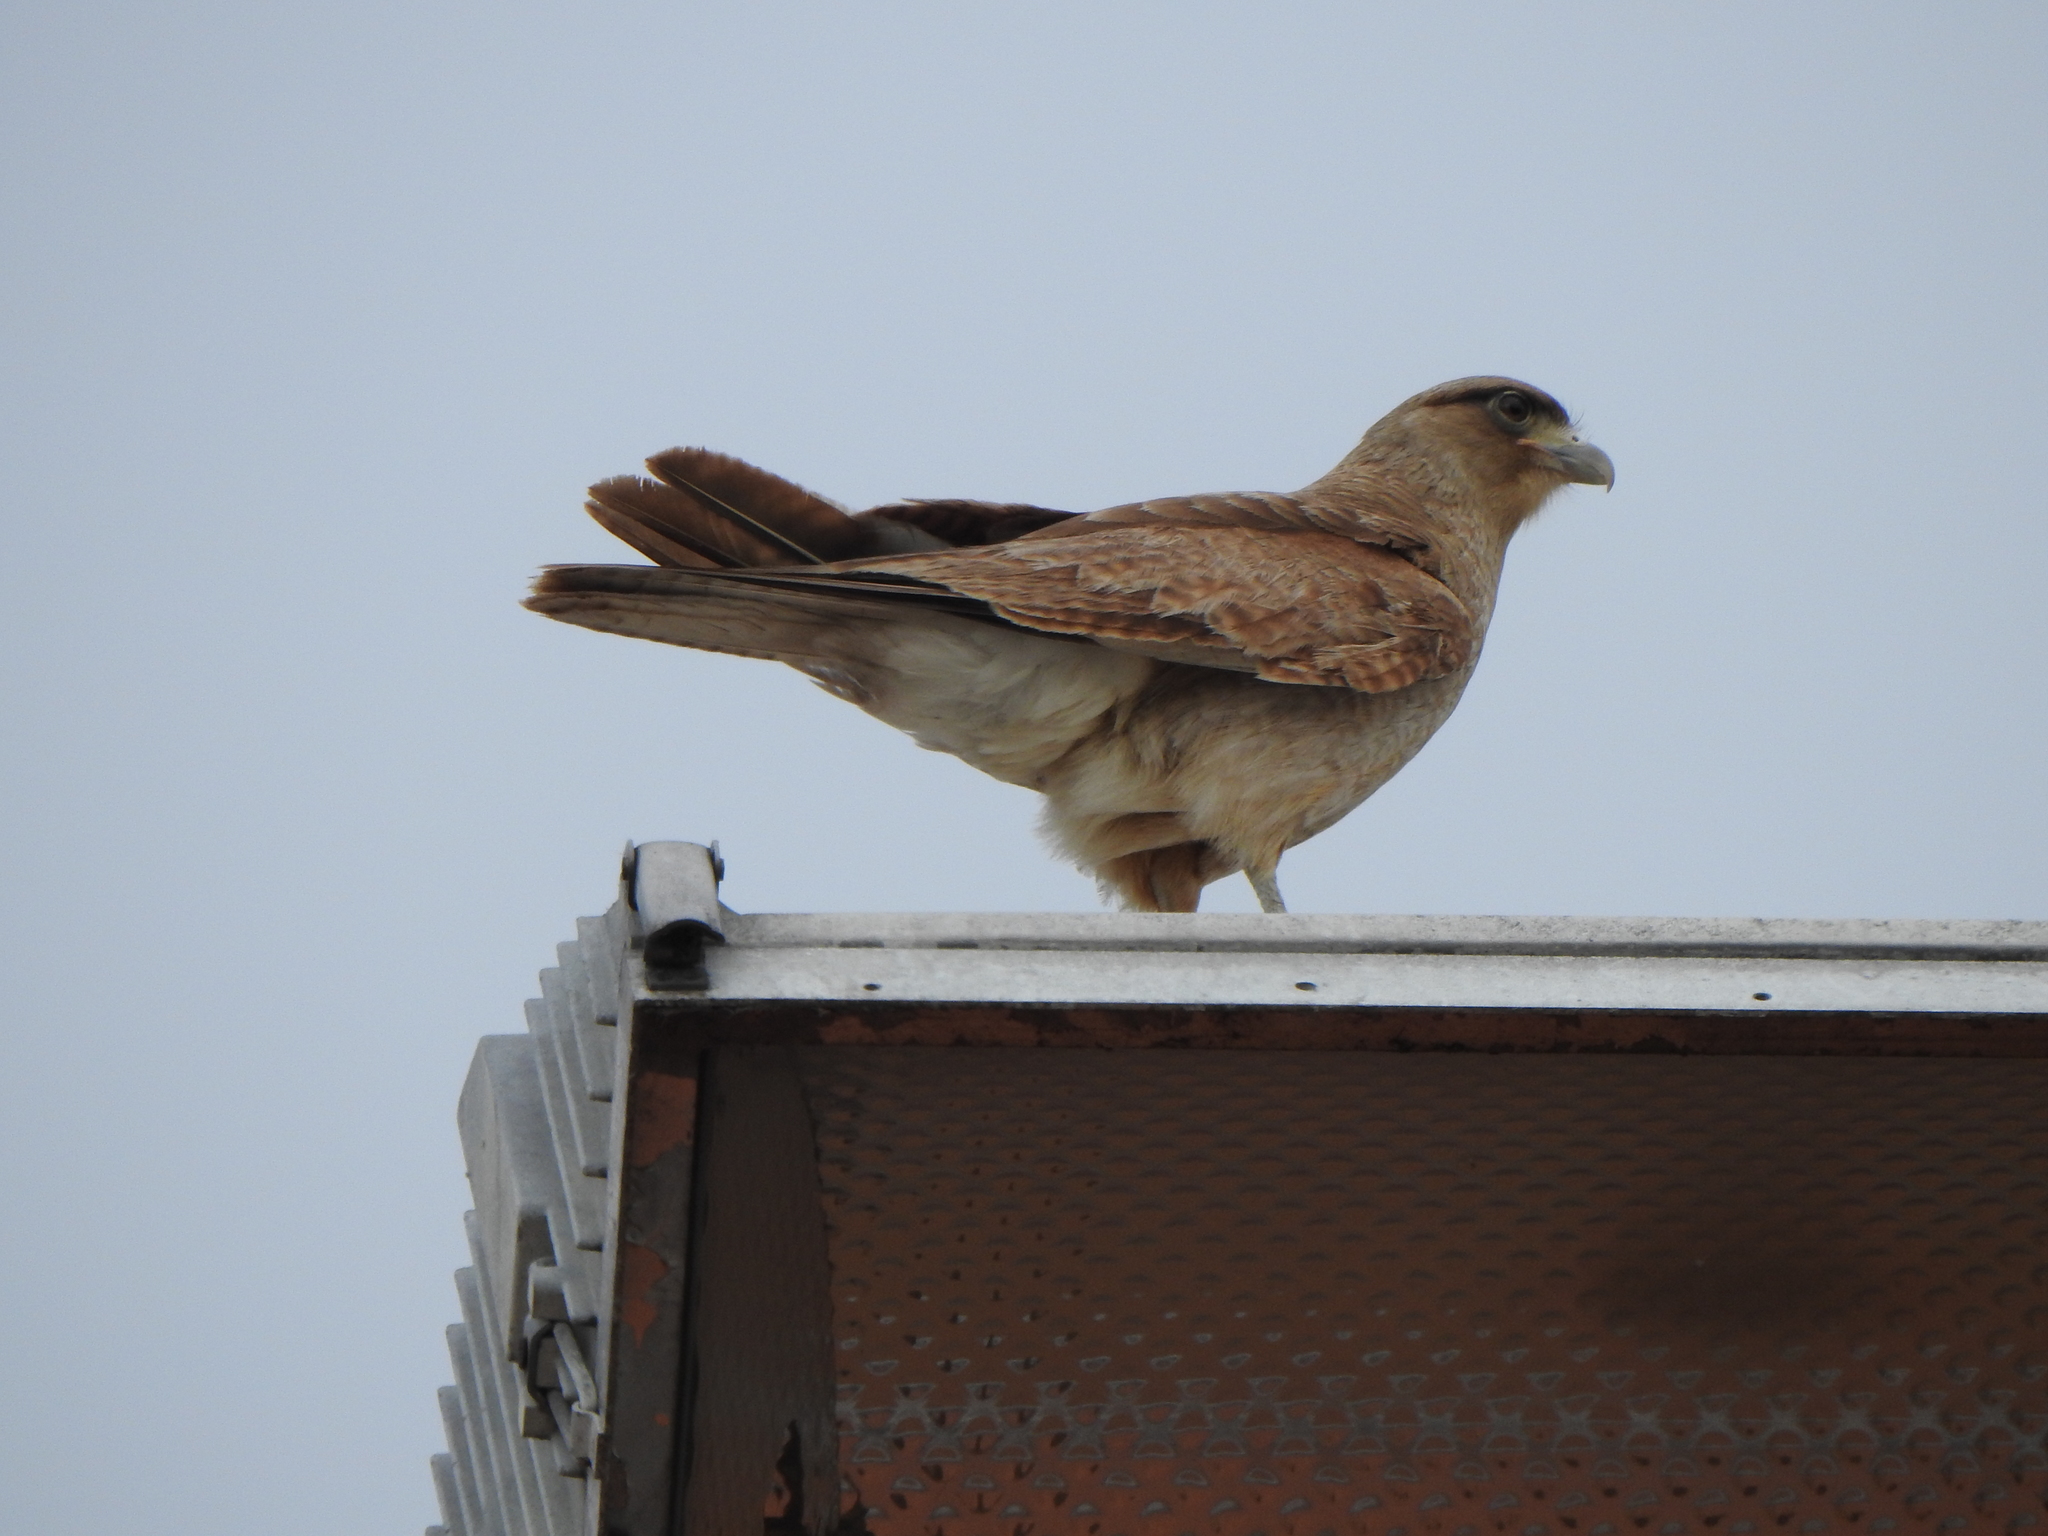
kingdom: Animalia
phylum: Chordata
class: Aves
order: Falconiformes
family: Falconidae
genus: Daptrius
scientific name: Daptrius
